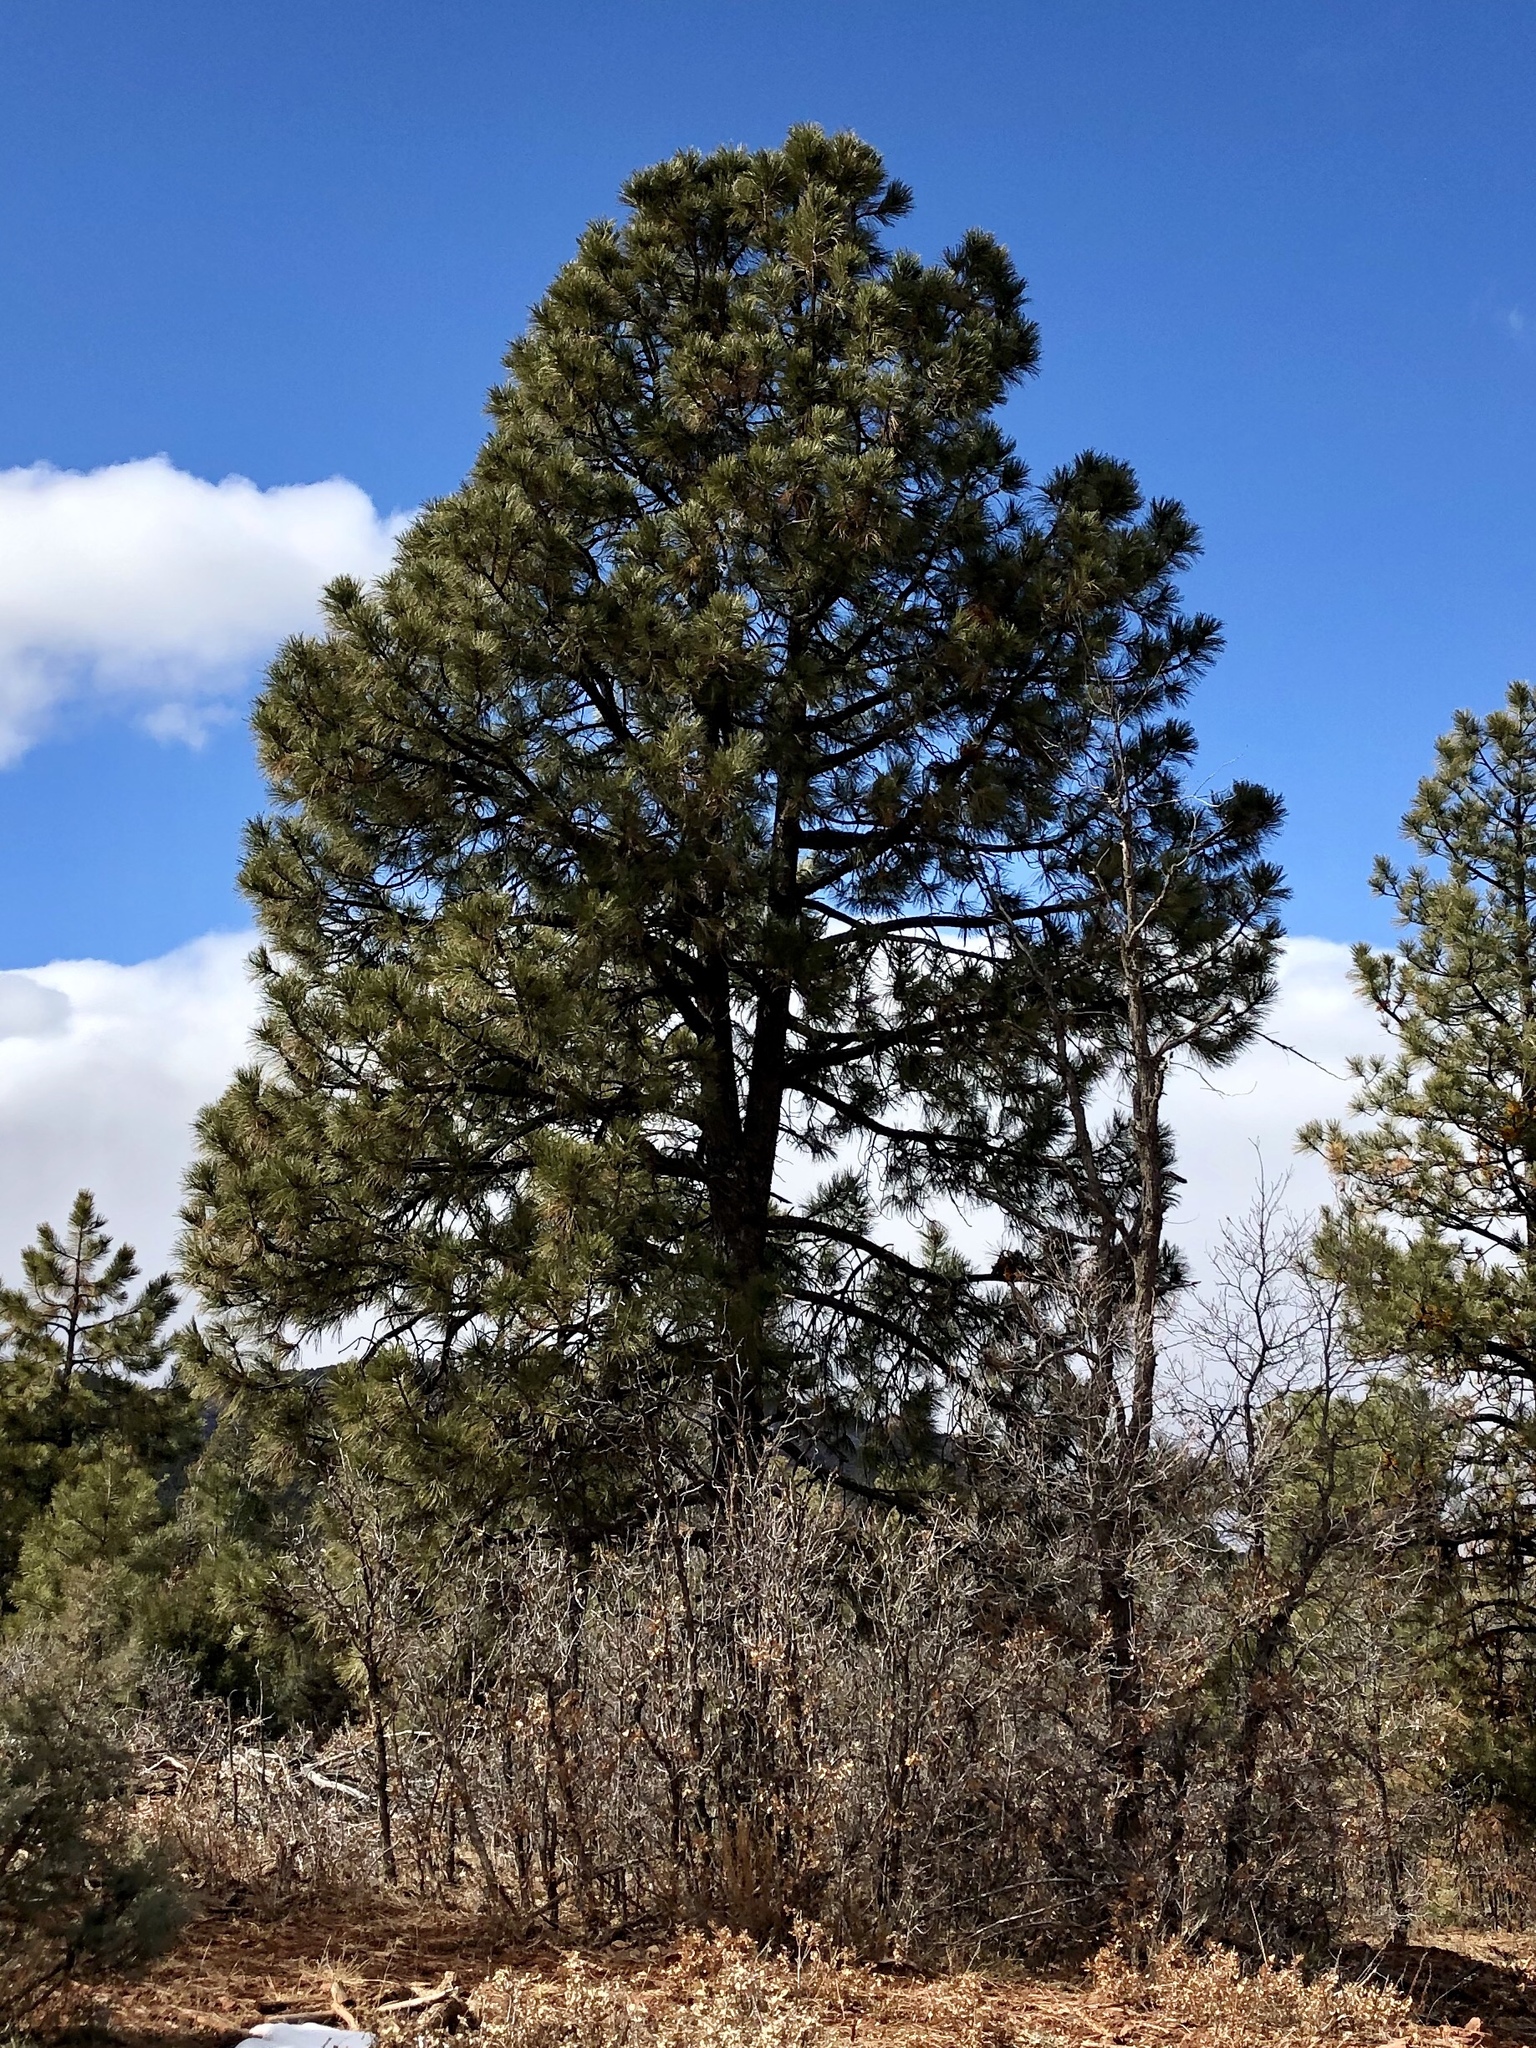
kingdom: Plantae
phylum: Tracheophyta
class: Pinopsida
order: Pinales
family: Pinaceae
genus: Pinus
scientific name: Pinus ponderosa
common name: Western yellow-pine
